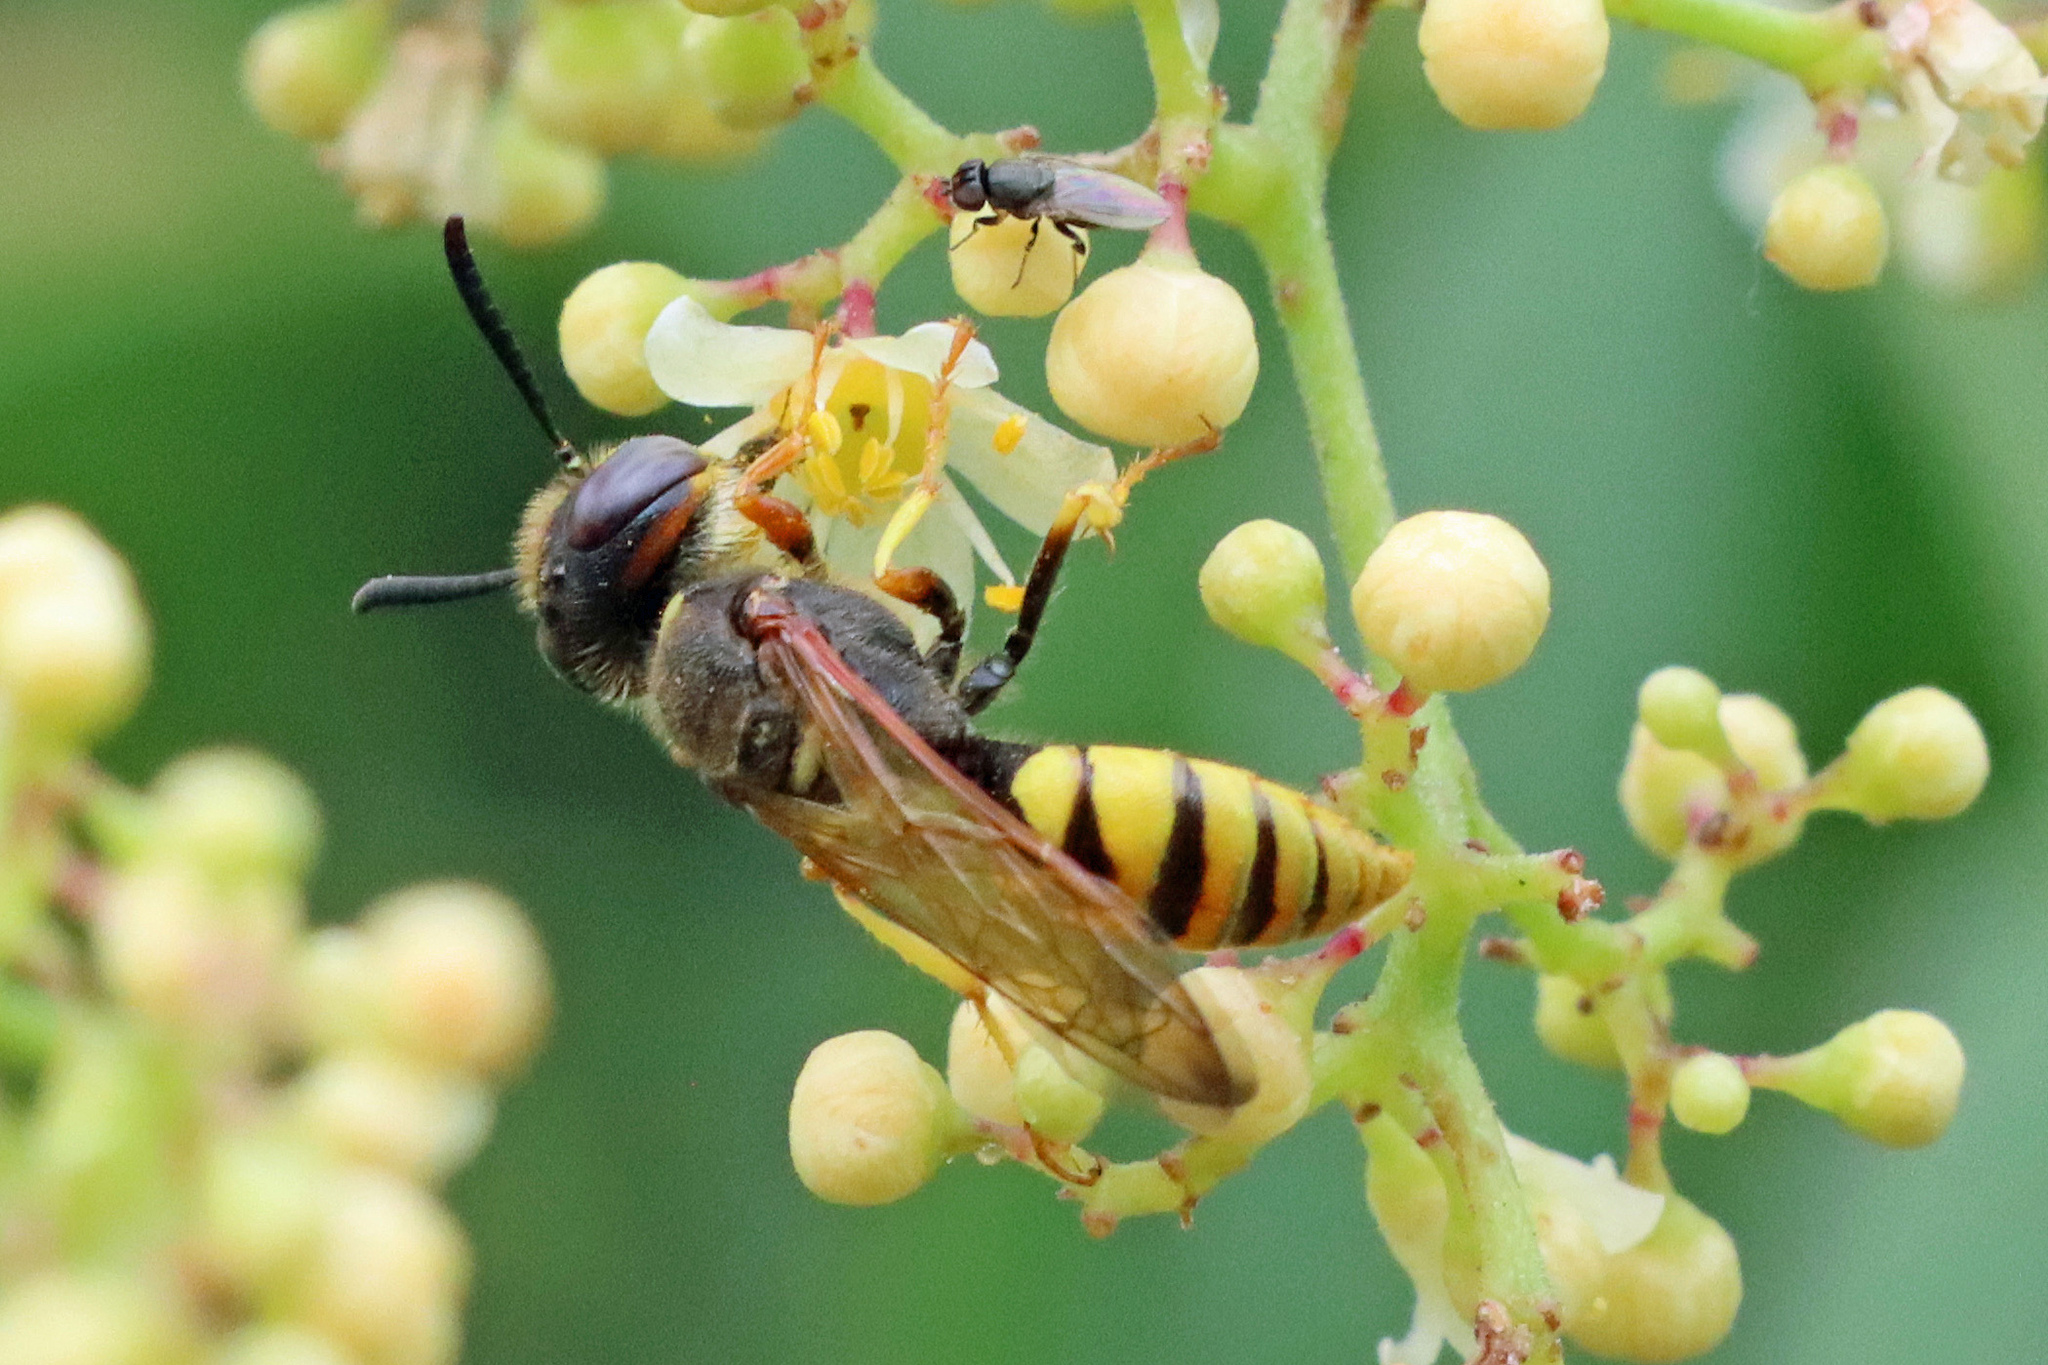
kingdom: Animalia
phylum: Arthropoda
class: Insecta
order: Hymenoptera
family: Crabronidae
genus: Philanthus
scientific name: Philanthus triangulum
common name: Bee wolf
